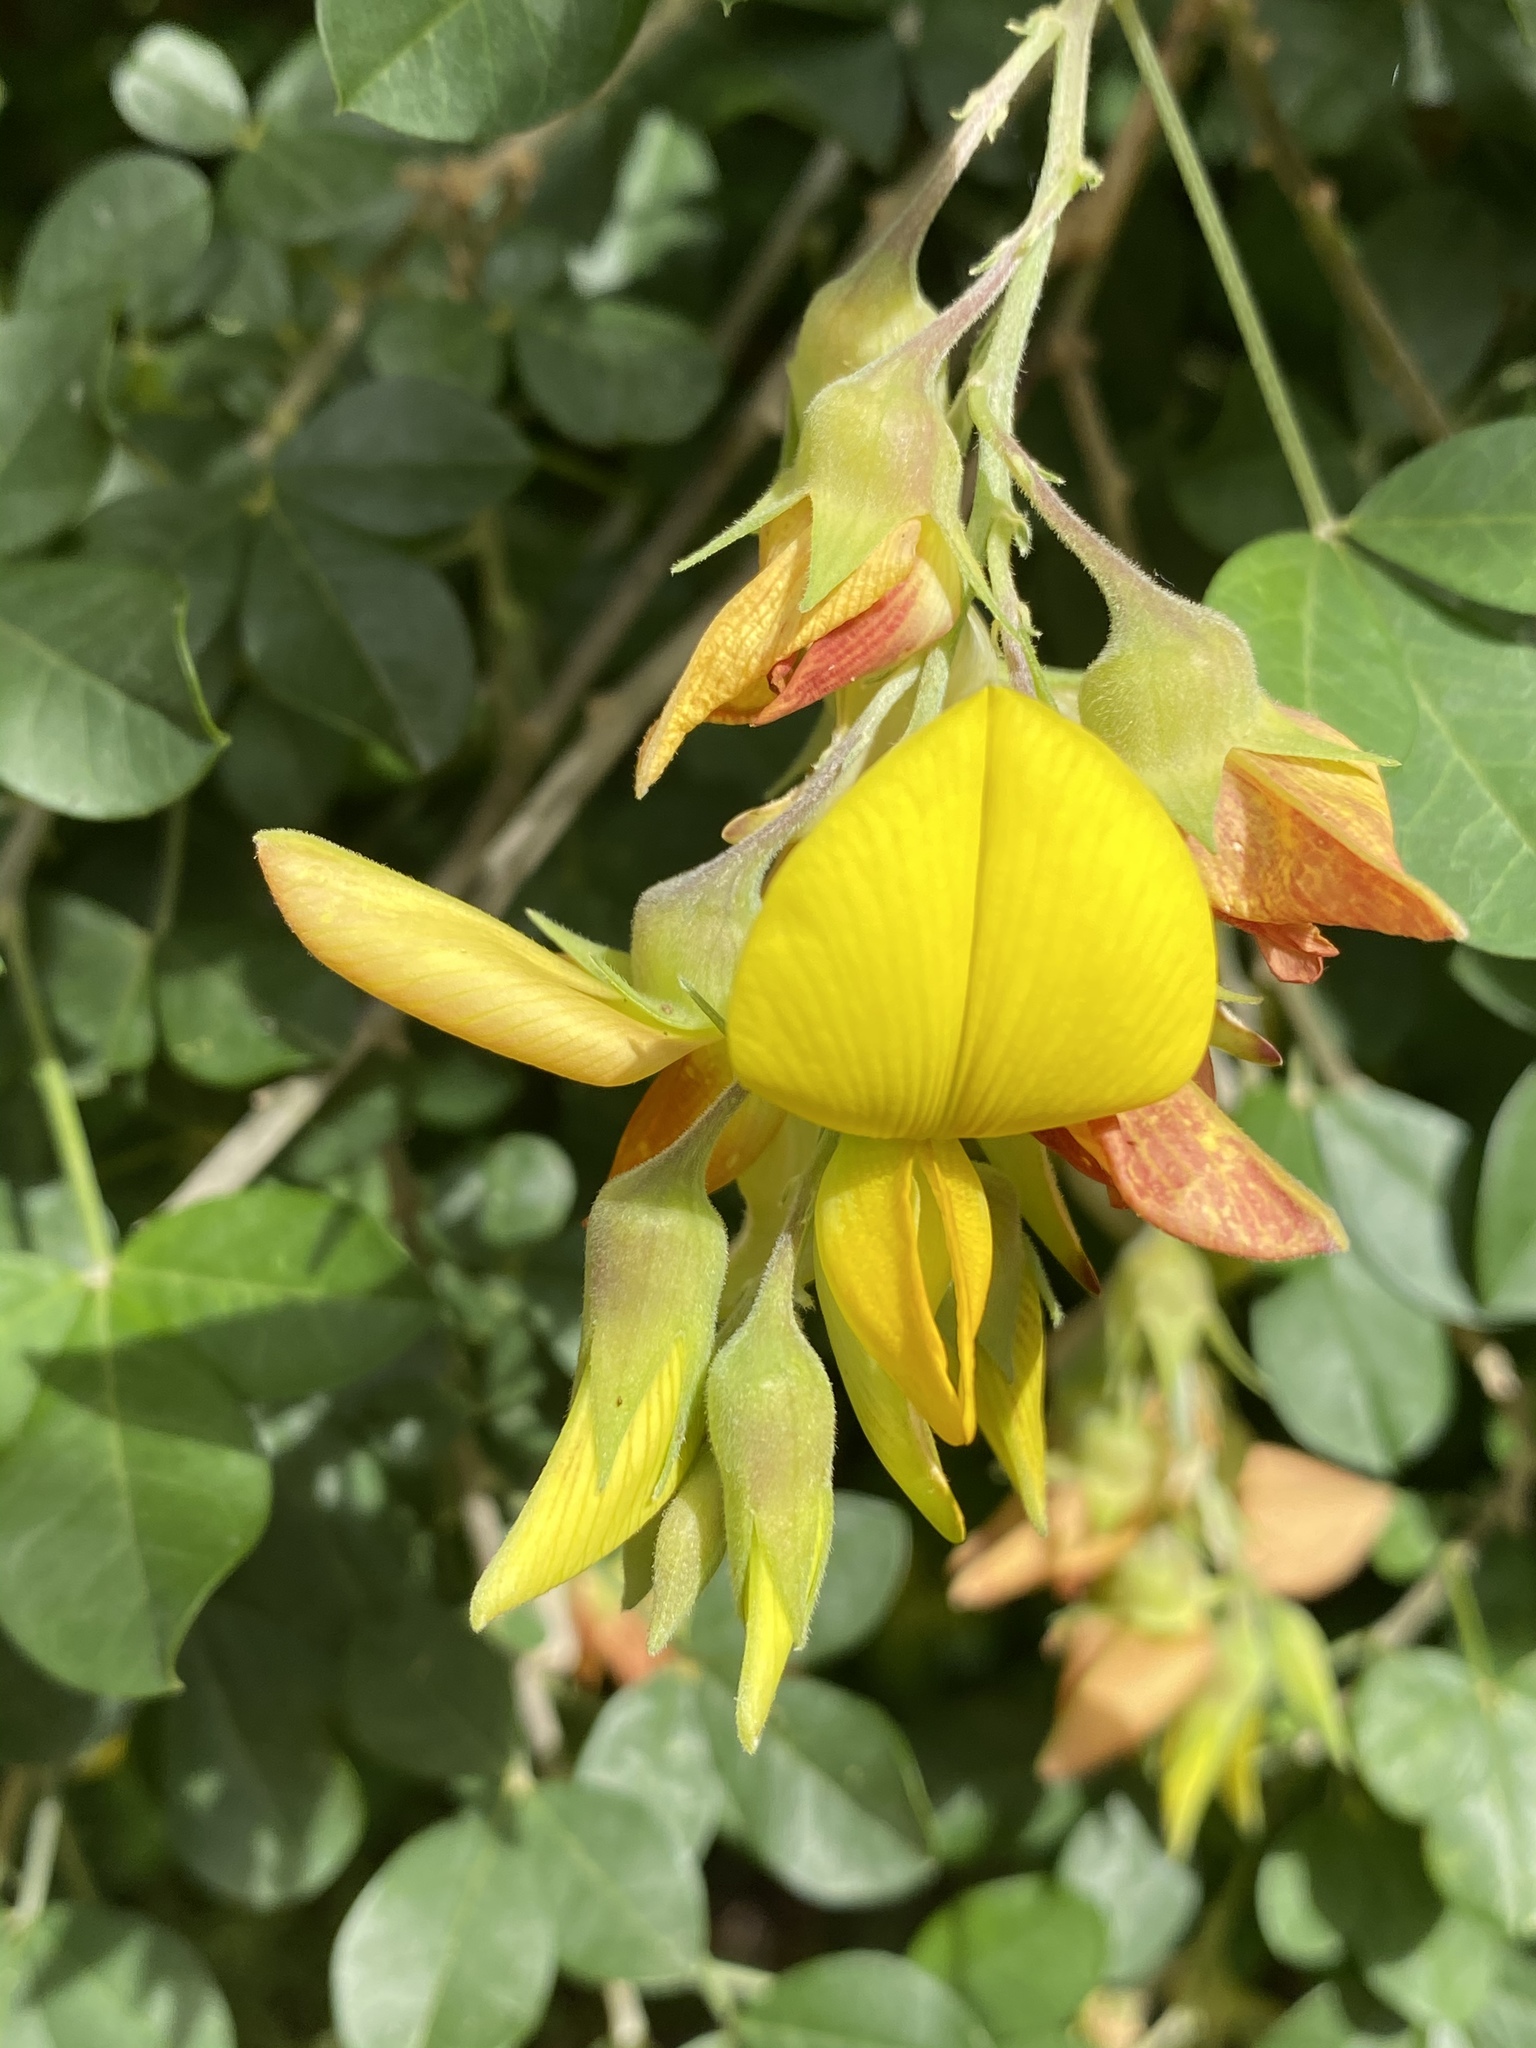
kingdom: Plantae
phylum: Tracheophyta
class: Magnoliopsida
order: Fabales
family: Fabaceae
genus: Crotalaria
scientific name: Crotalaria capensis
